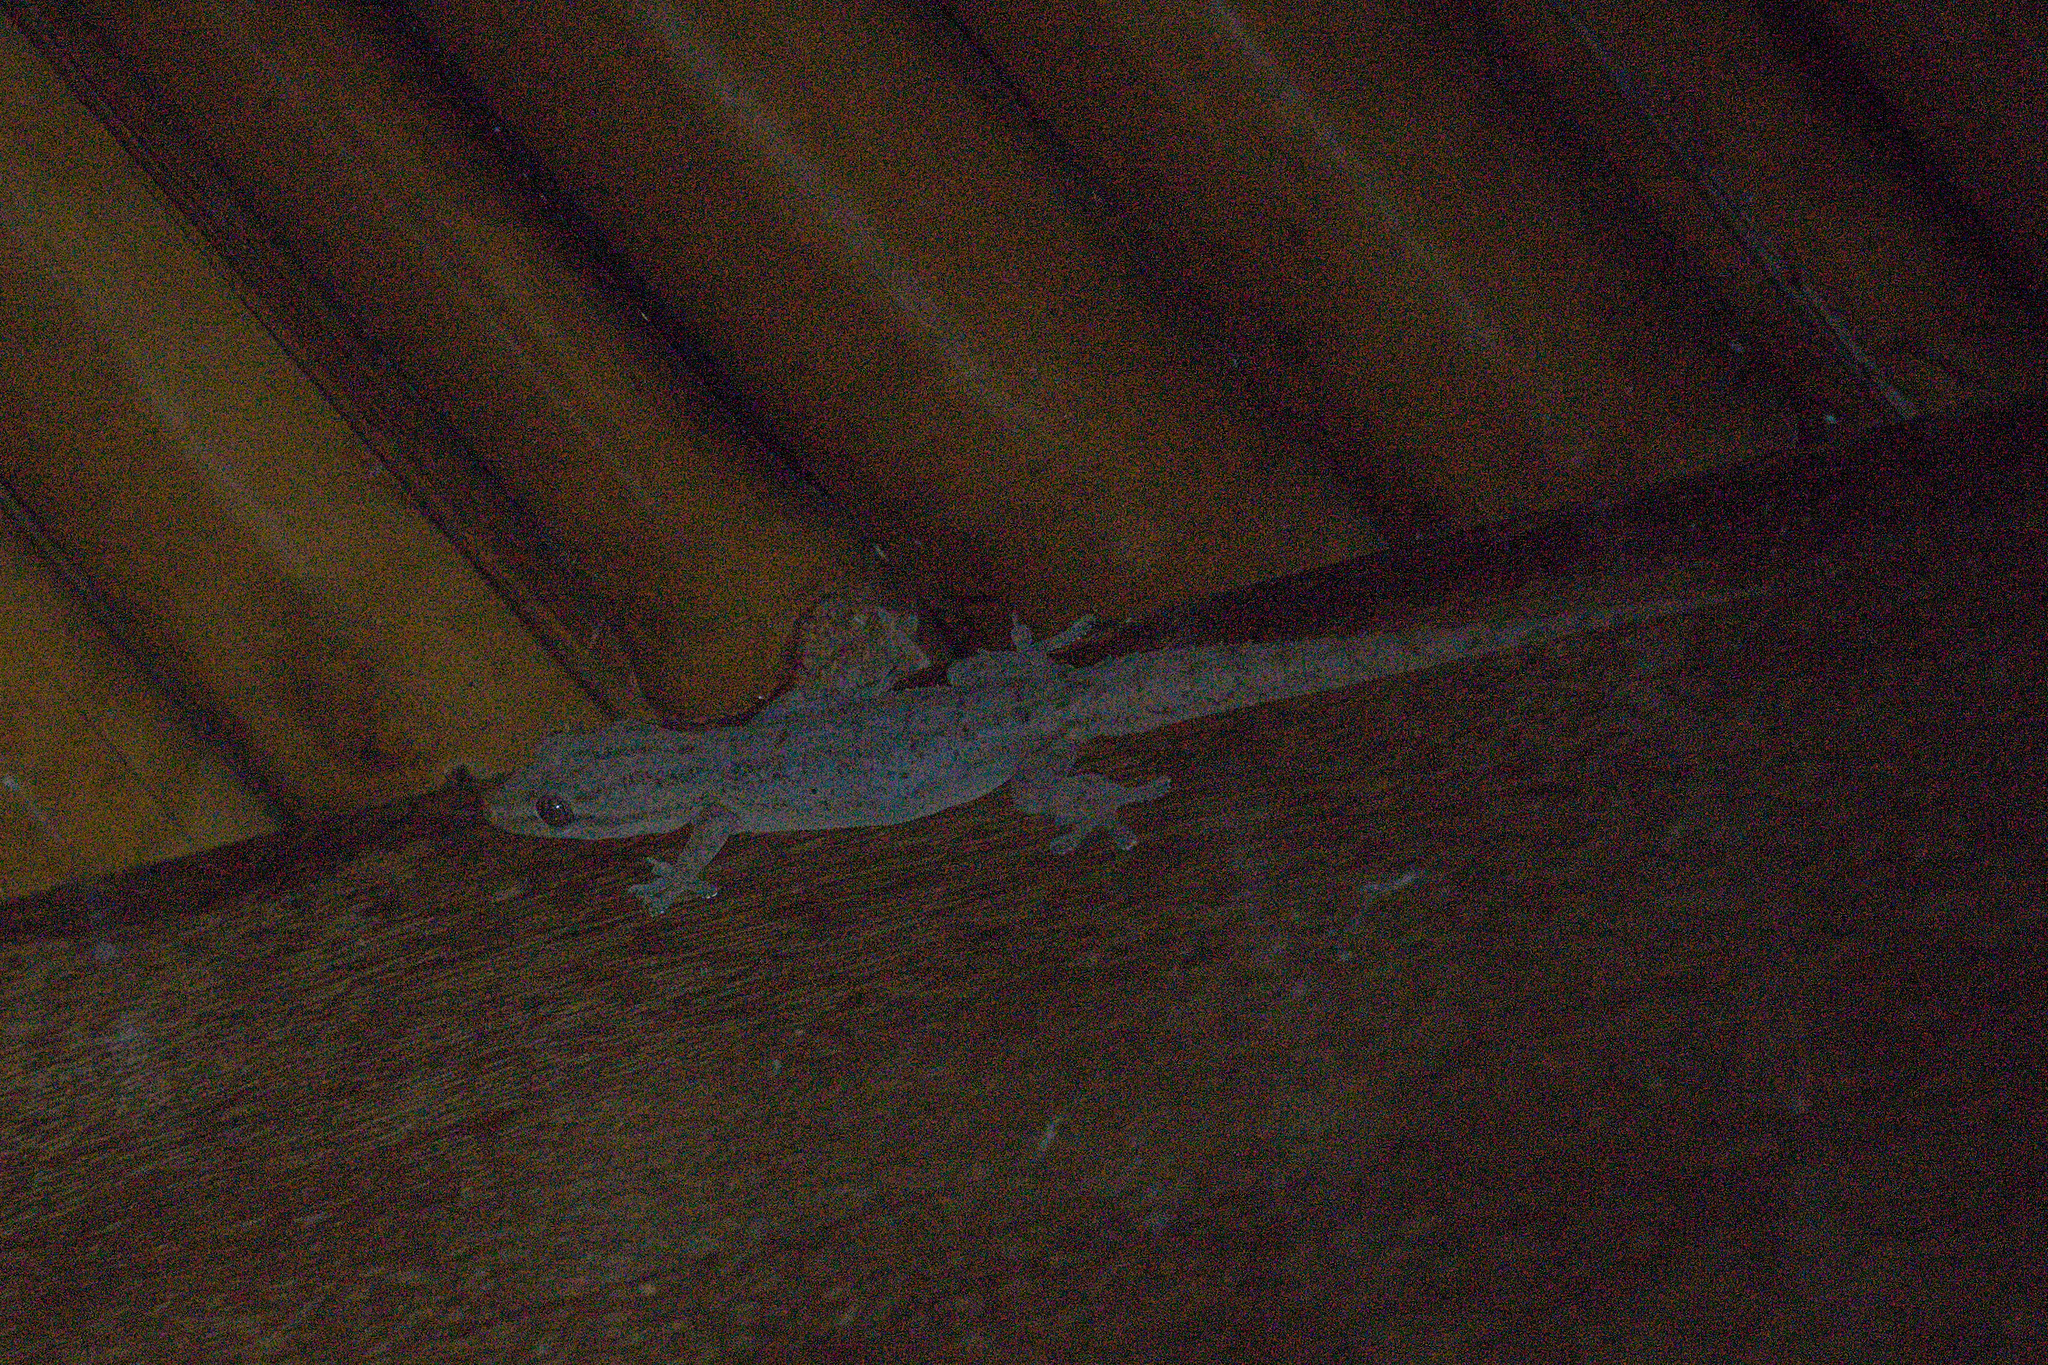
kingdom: Animalia
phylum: Chordata
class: Squamata
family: Gekkonidae
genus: Hemidactylus
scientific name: Hemidactylus frenatus
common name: Common house gecko
